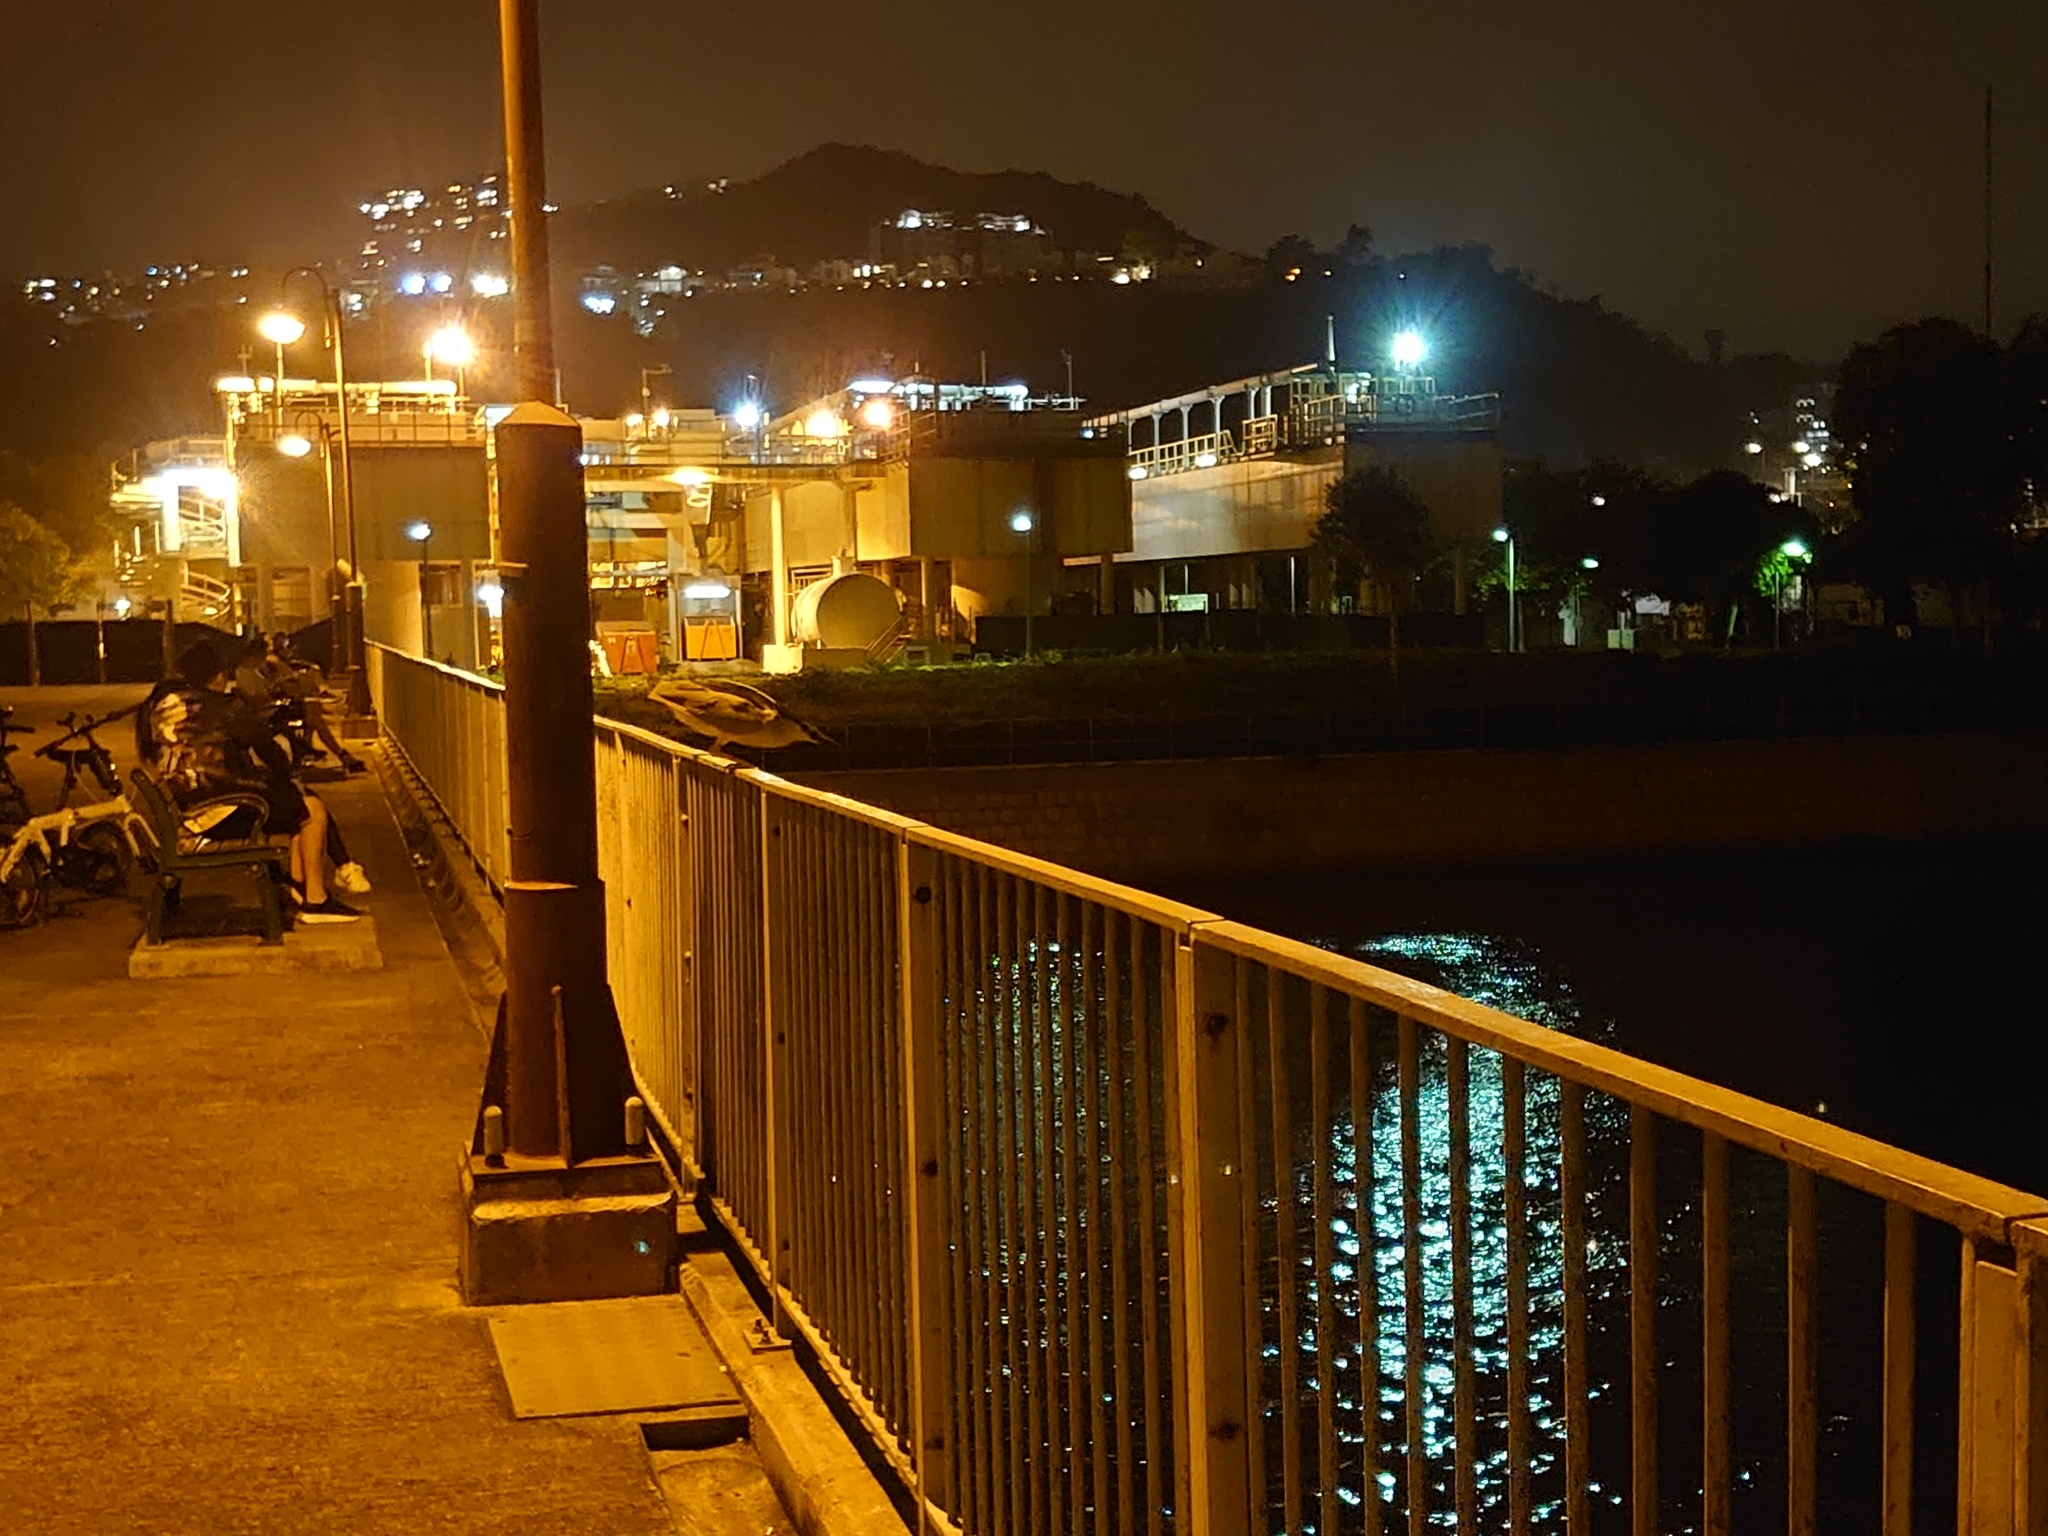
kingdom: Animalia
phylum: Chordata
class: Aves
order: Pelecaniformes
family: Ardeidae
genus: Nycticorax
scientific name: Nycticorax nycticorax
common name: Black-crowned night heron
